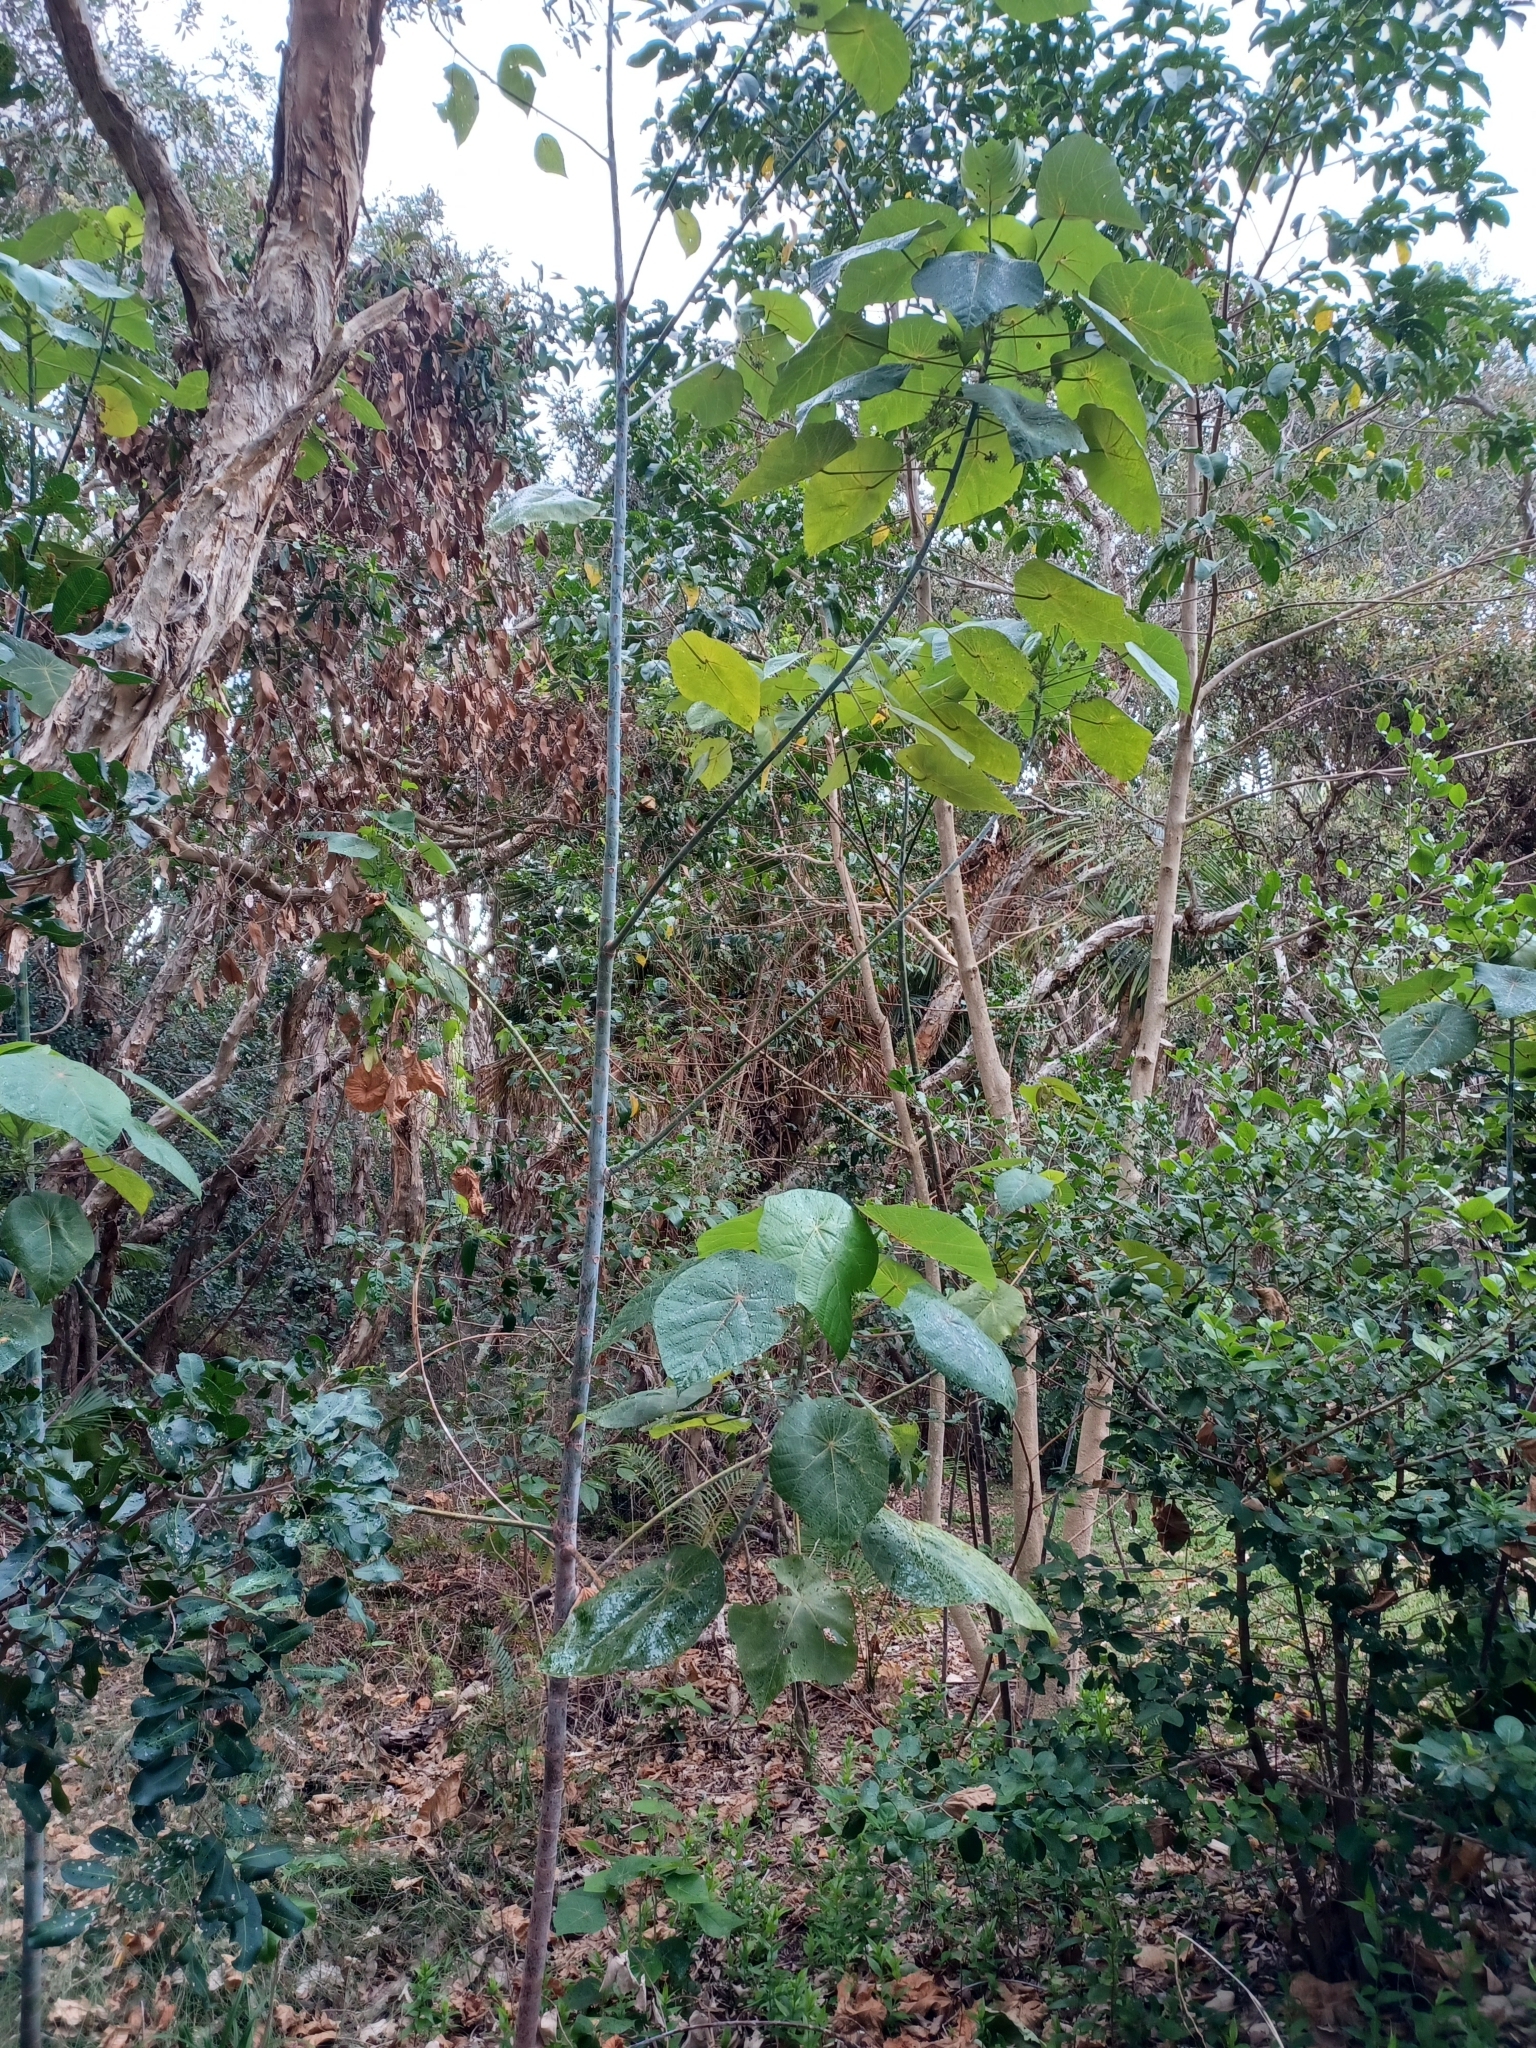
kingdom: Plantae
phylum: Tracheophyta
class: Magnoliopsida
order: Malpighiales
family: Euphorbiaceae
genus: Macaranga
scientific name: Macaranga tanarius
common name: Parasol leaf tree
